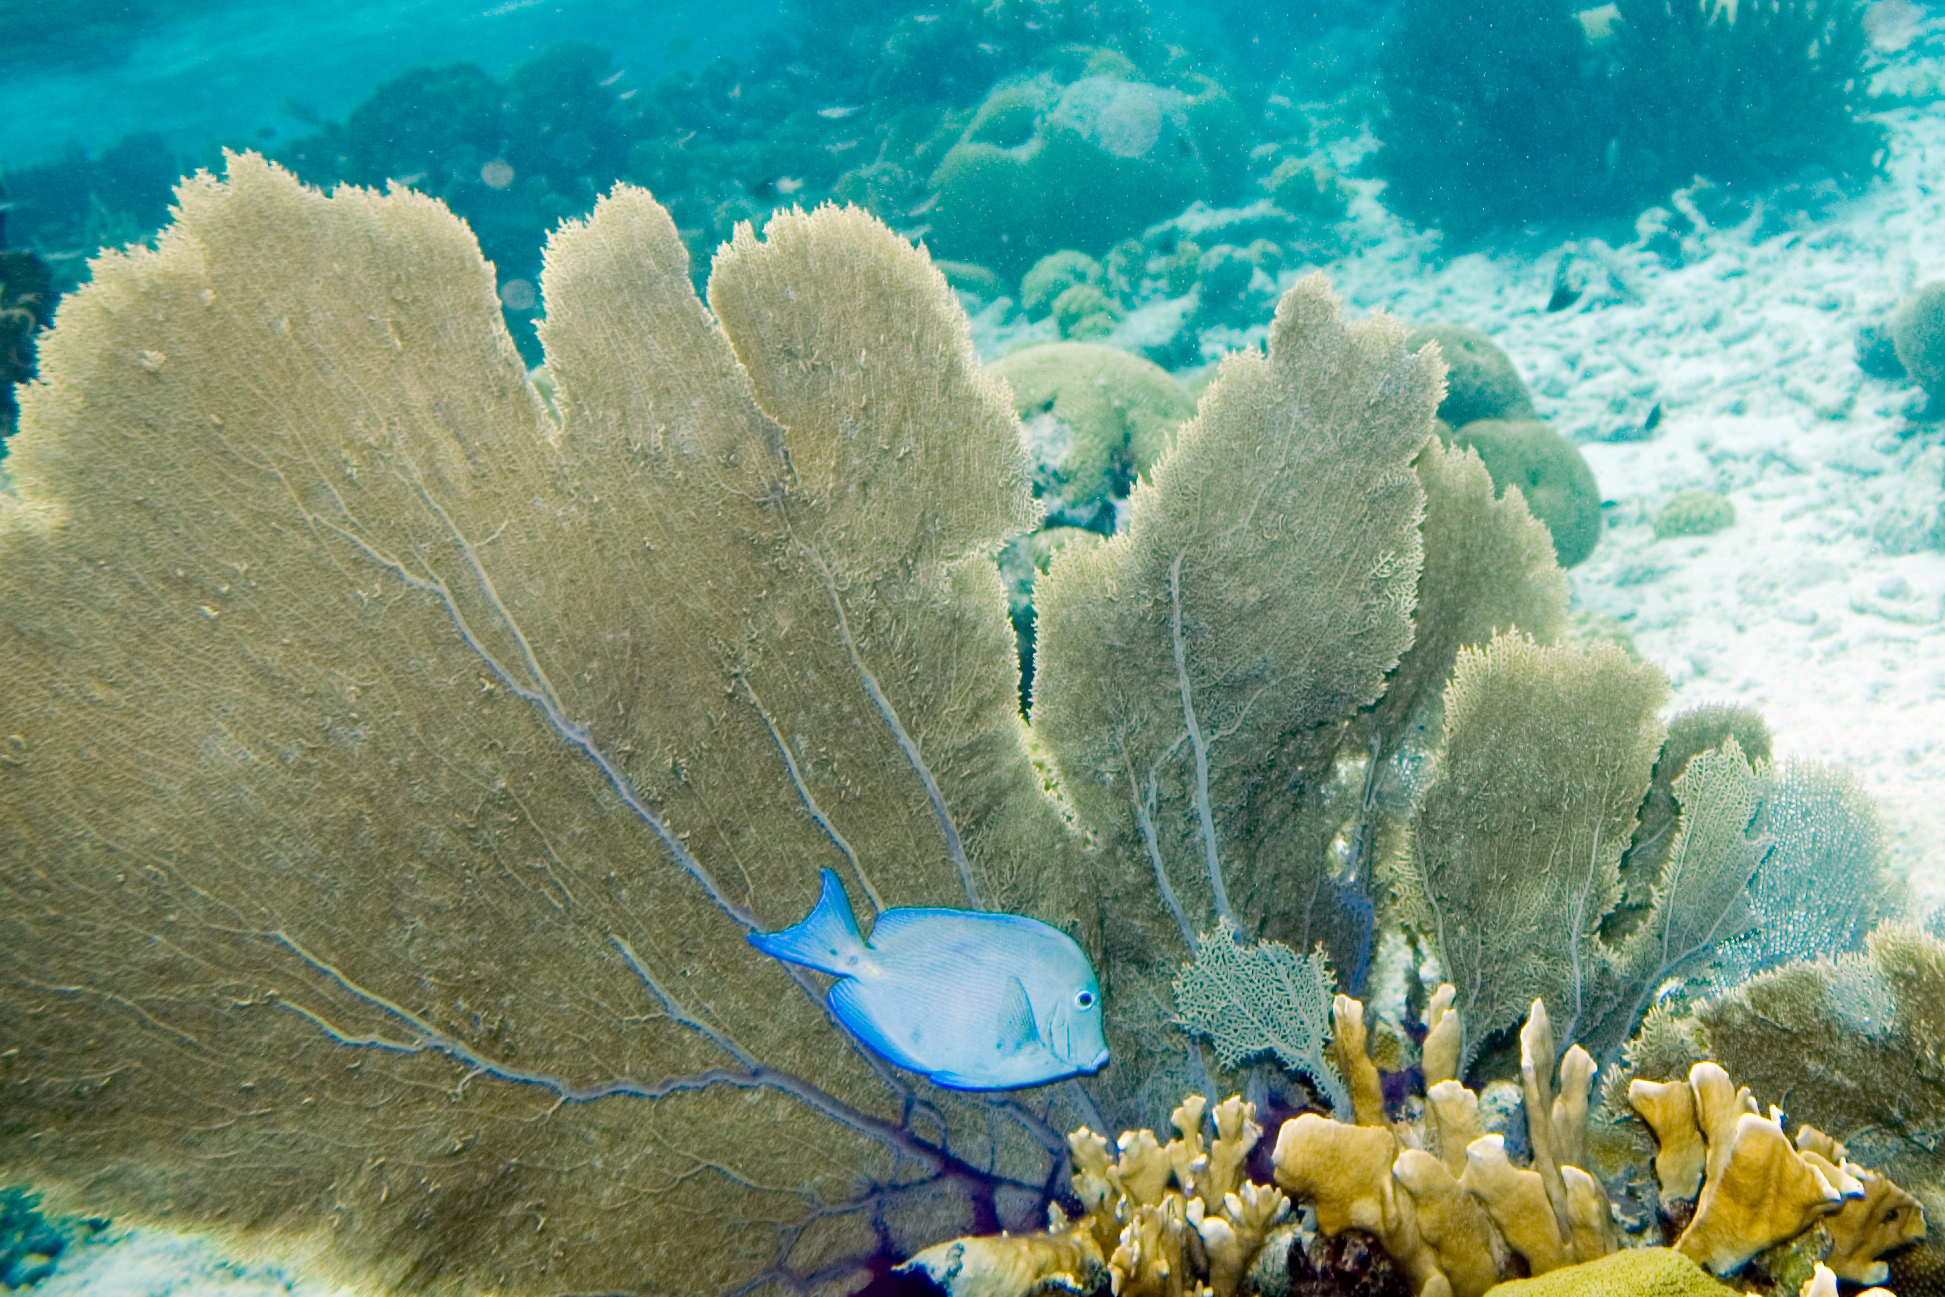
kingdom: Animalia
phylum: Chordata
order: Perciformes
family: Acanthuridae
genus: Acanthurus
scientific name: Acanthurus coeruleus
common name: Blue tang
